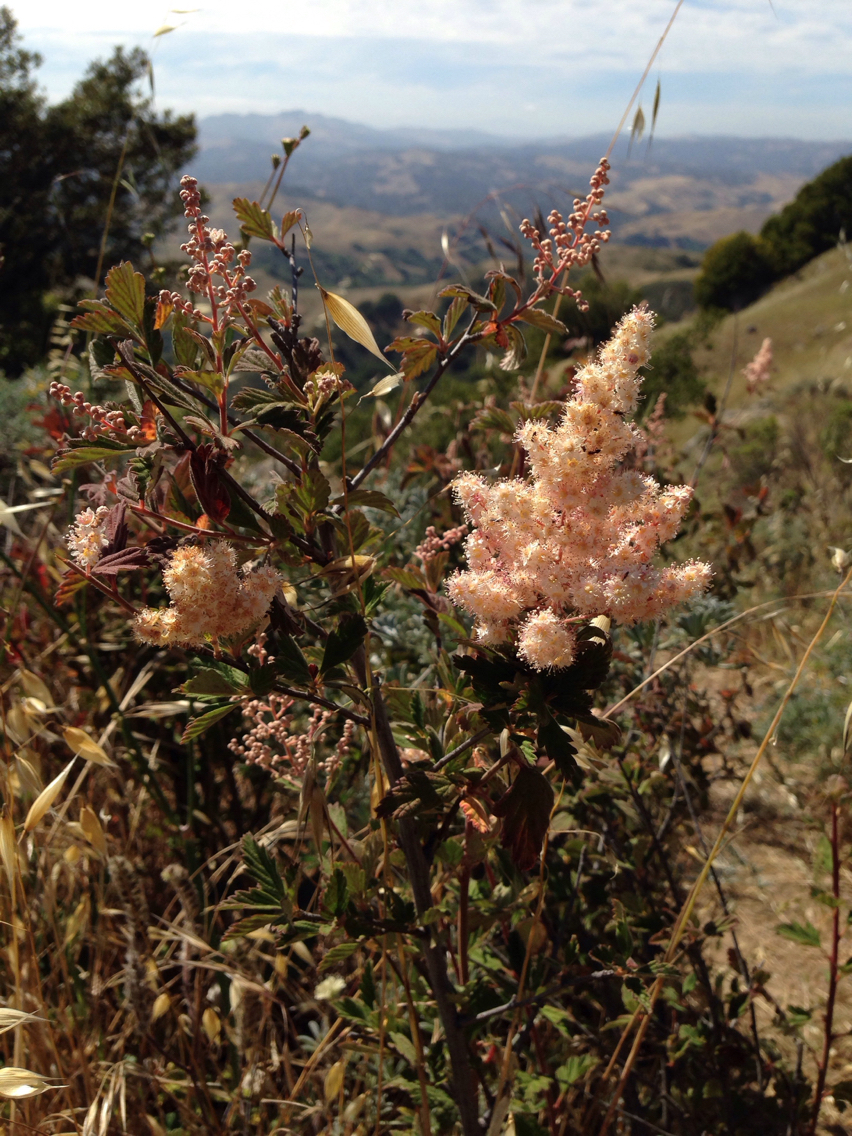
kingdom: Plantae
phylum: Tracheophyta
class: Magnoliopsida
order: Rosales
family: Rosaceae
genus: Holodiscus
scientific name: Holodiscus discolor
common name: Oceanspray
